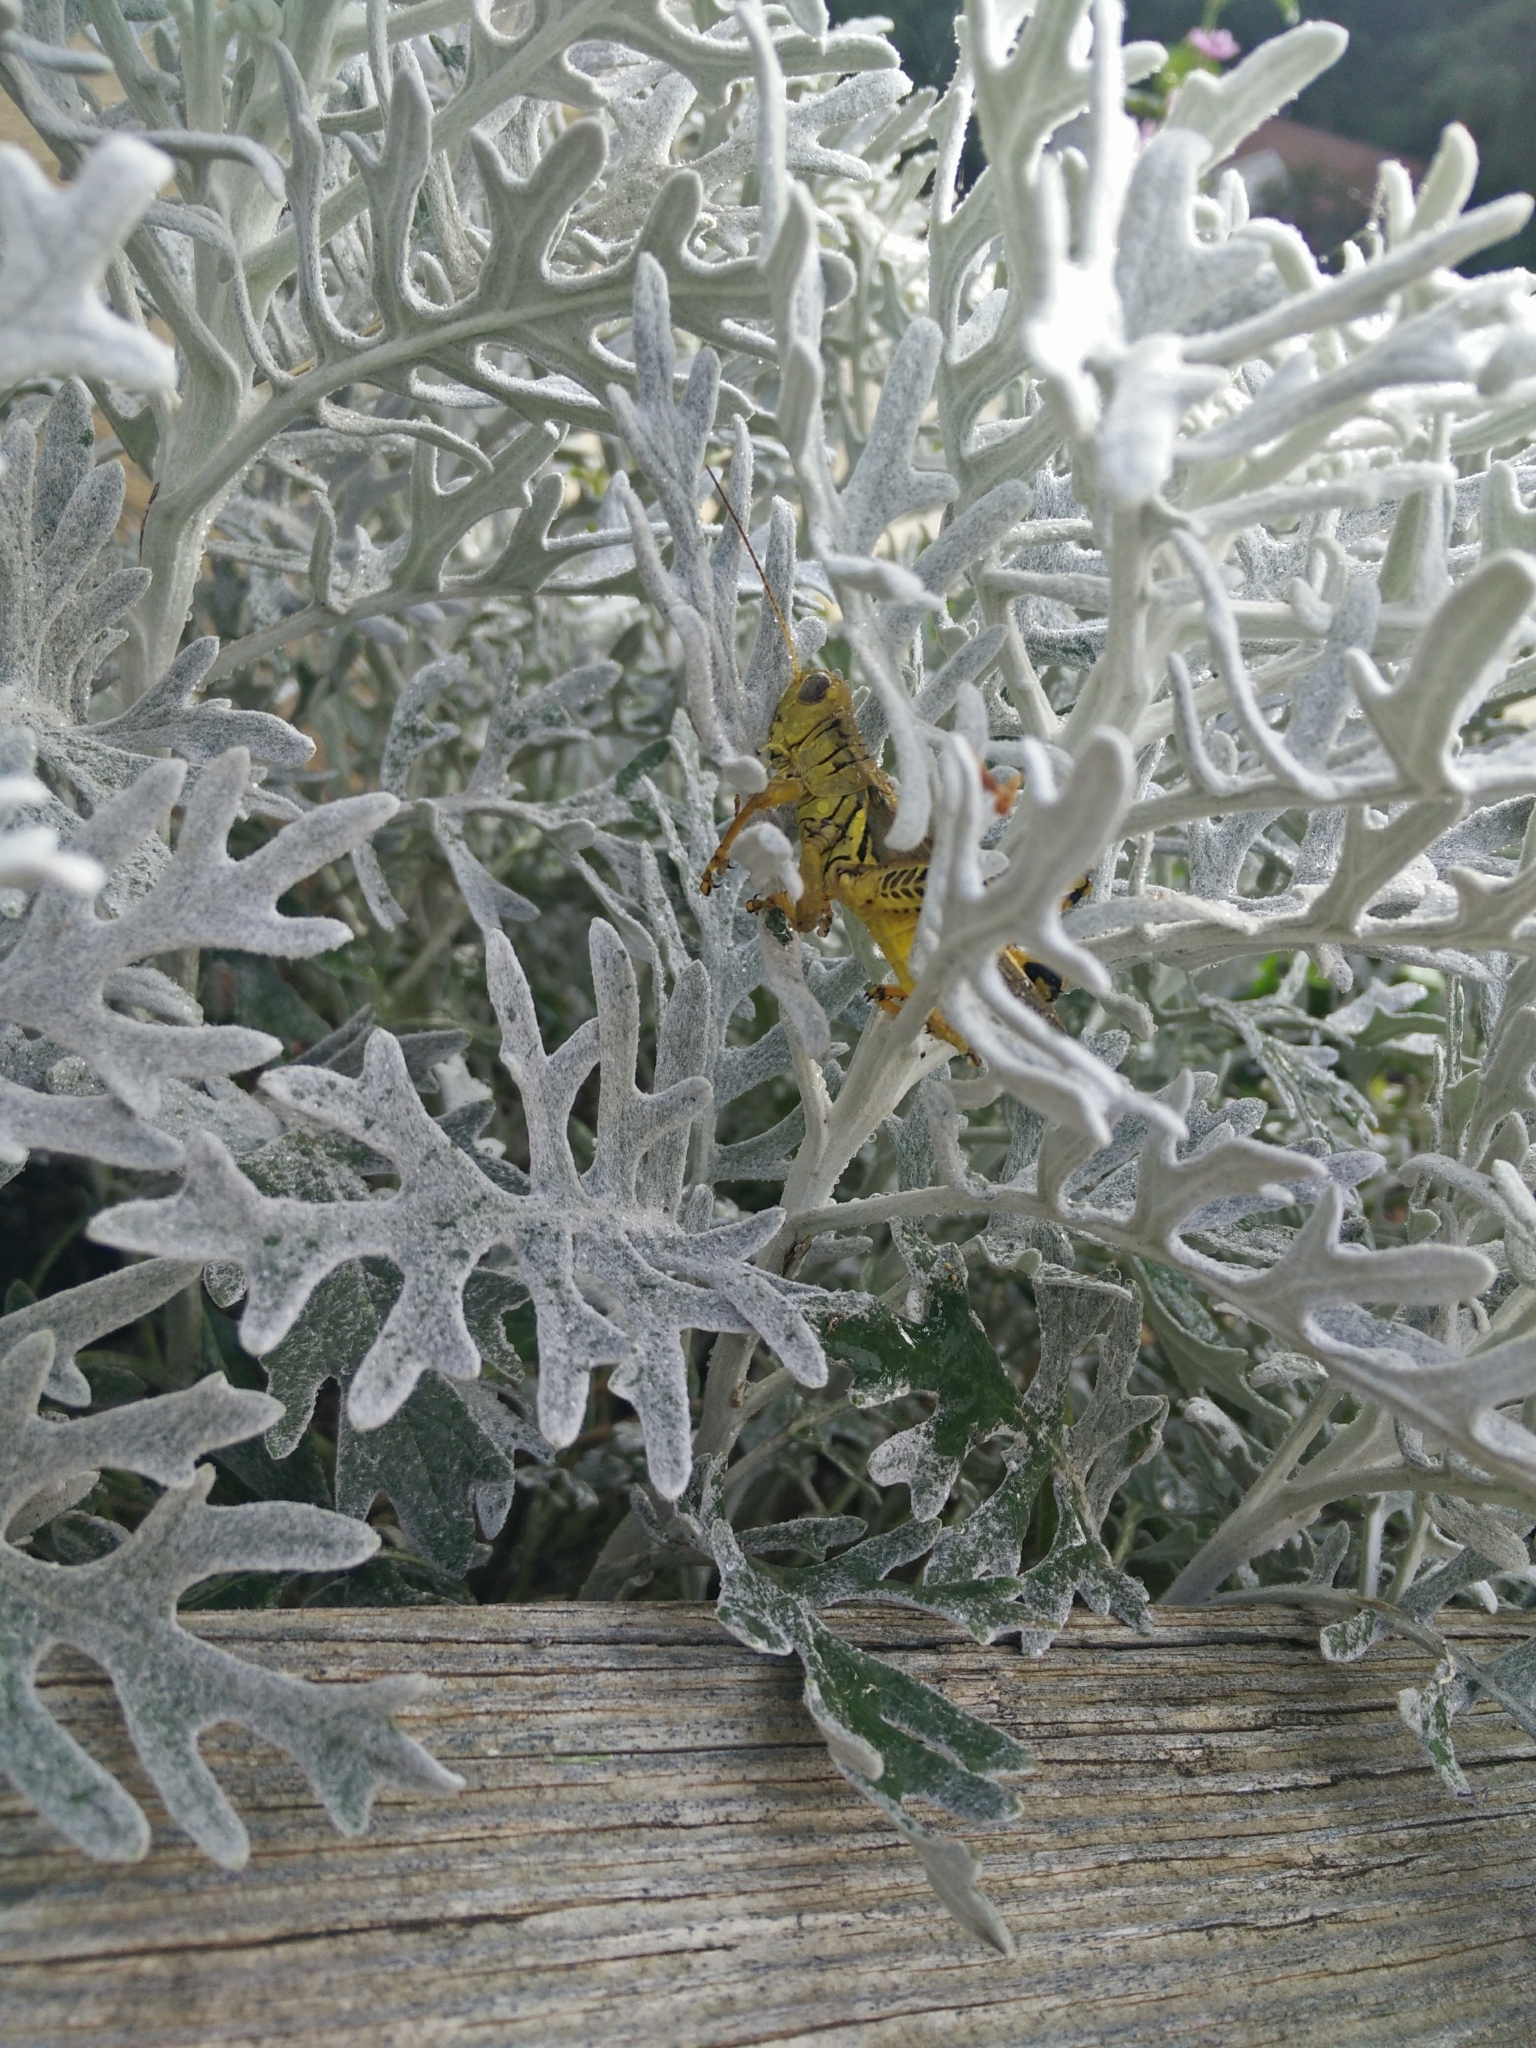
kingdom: Animalia
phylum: Arthropoda
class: Insecta
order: Orthoptera
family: Acrididae
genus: Melanoplus
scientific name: Melanoplus differentialis
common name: Differential grasshopper
